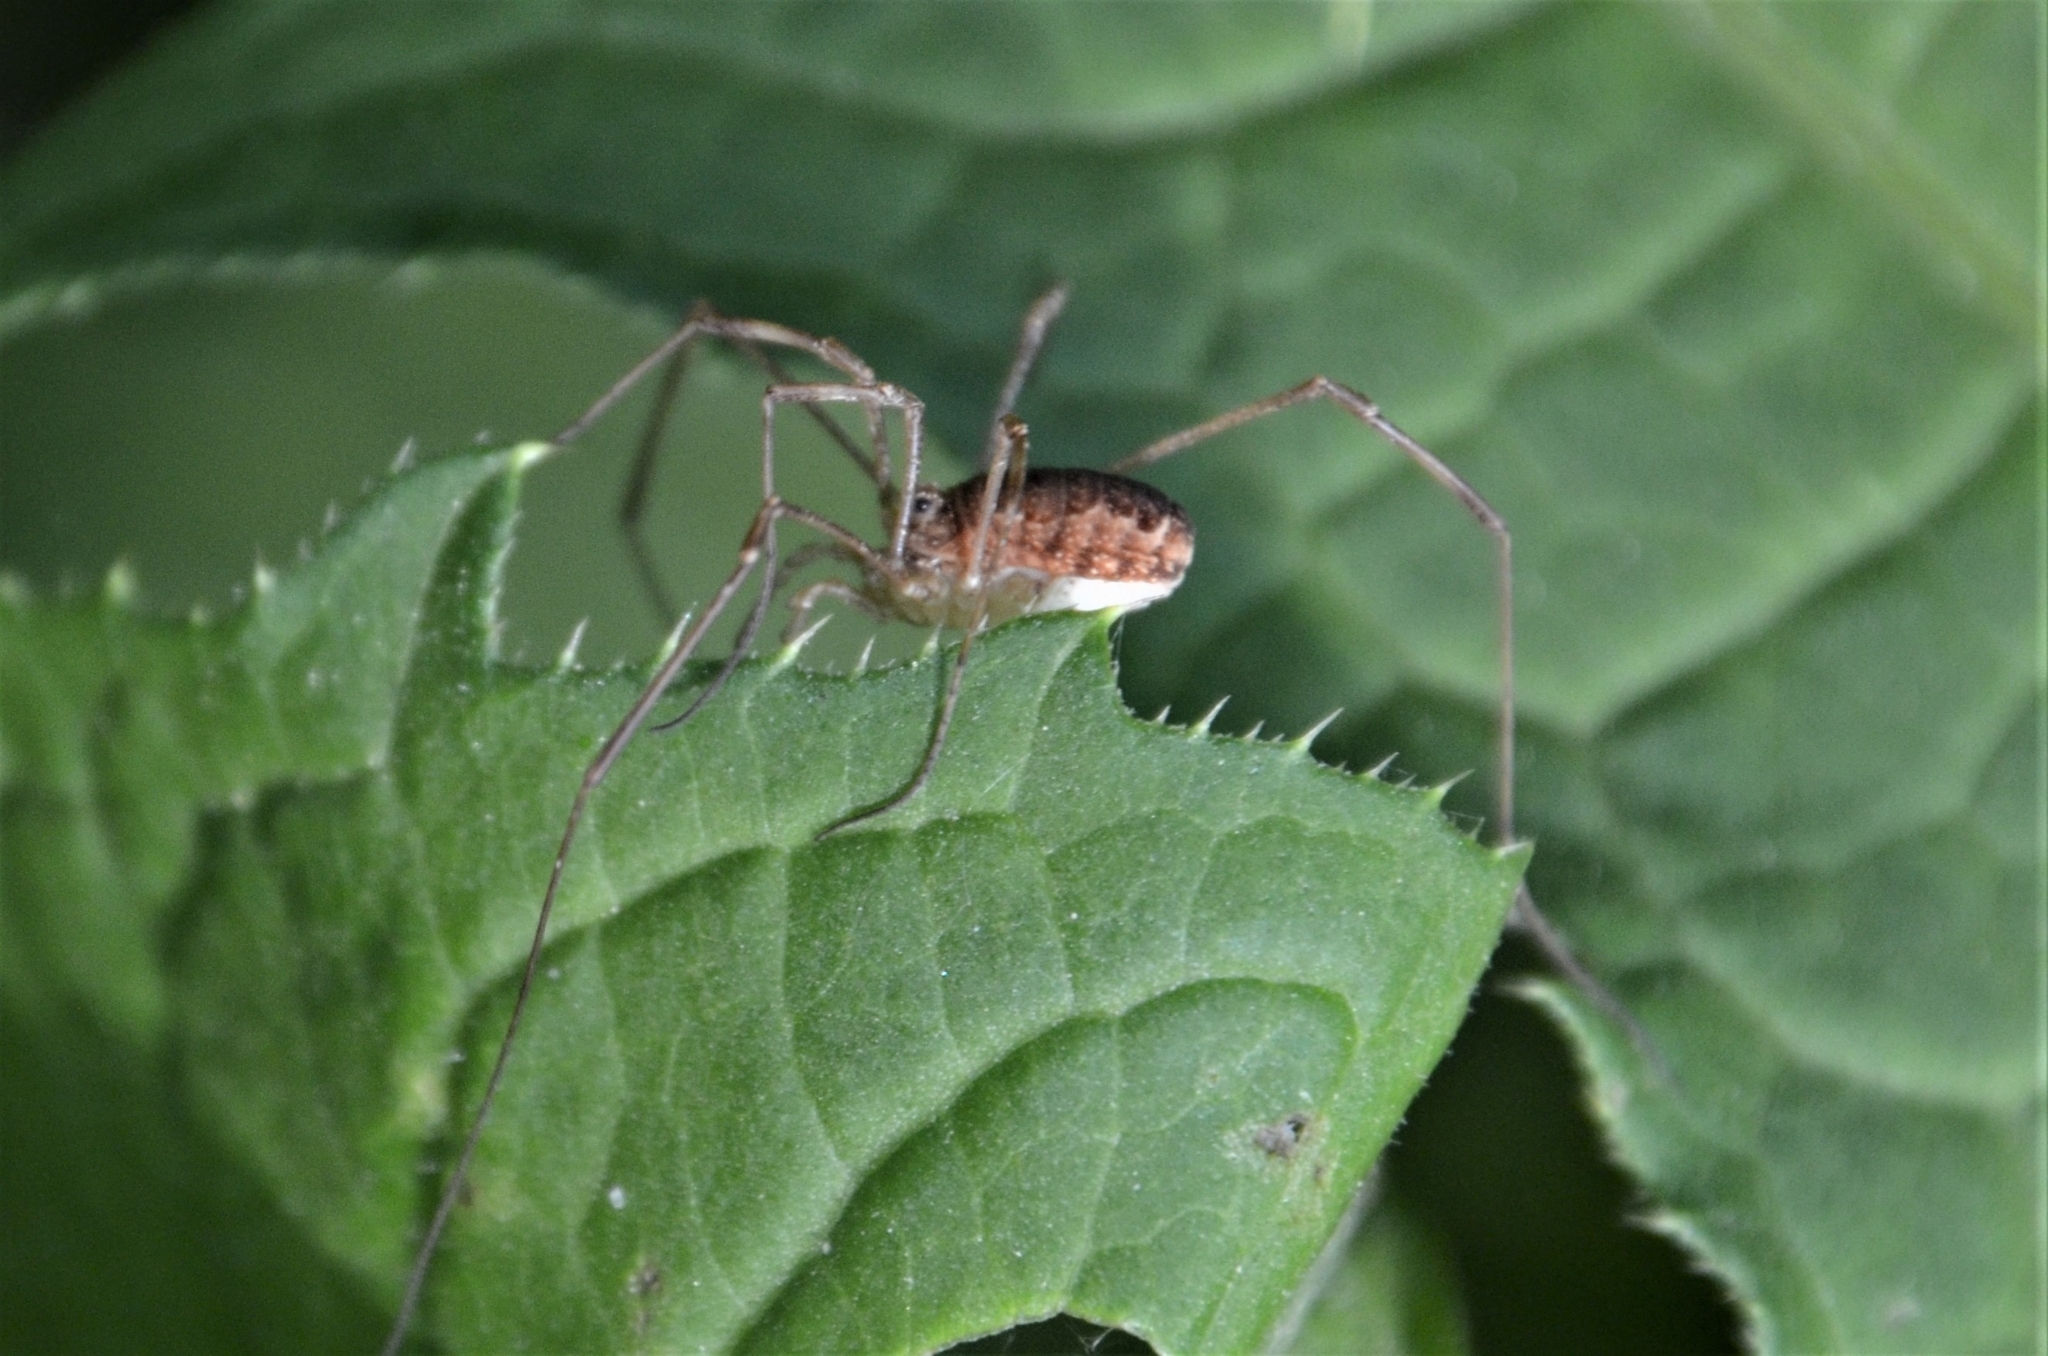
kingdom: Animalia
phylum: Arthropoda
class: Arachnida
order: Opiliones
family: Phalangiidae
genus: Rilaena
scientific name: Rilaena triangularis
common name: Spring harvestman
